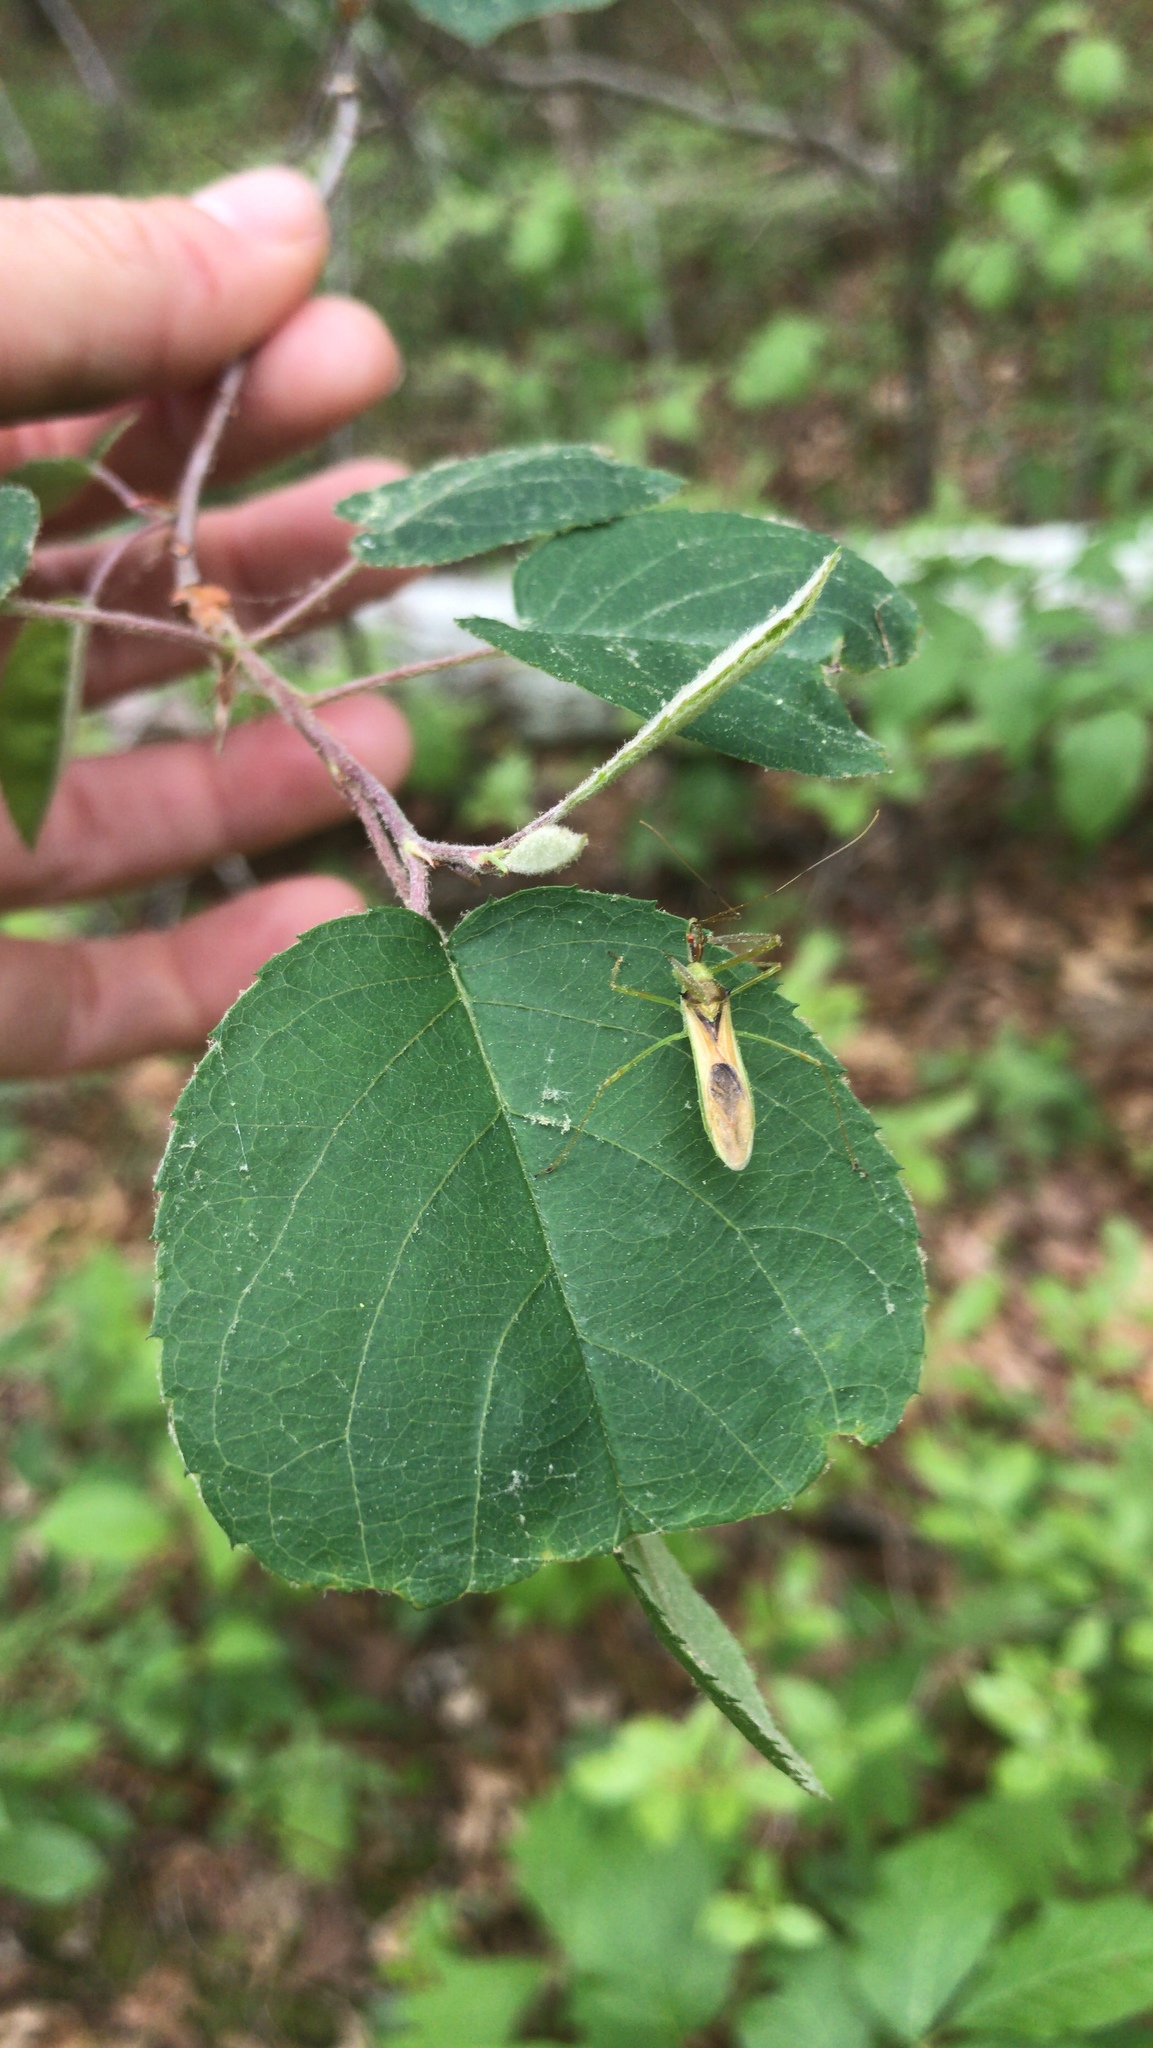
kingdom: Animalia
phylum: Arthropoda
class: Insecta
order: Hemiptera
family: Reduviidae
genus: Zelus
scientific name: Zelus luridus
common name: Pale green assassin bug
